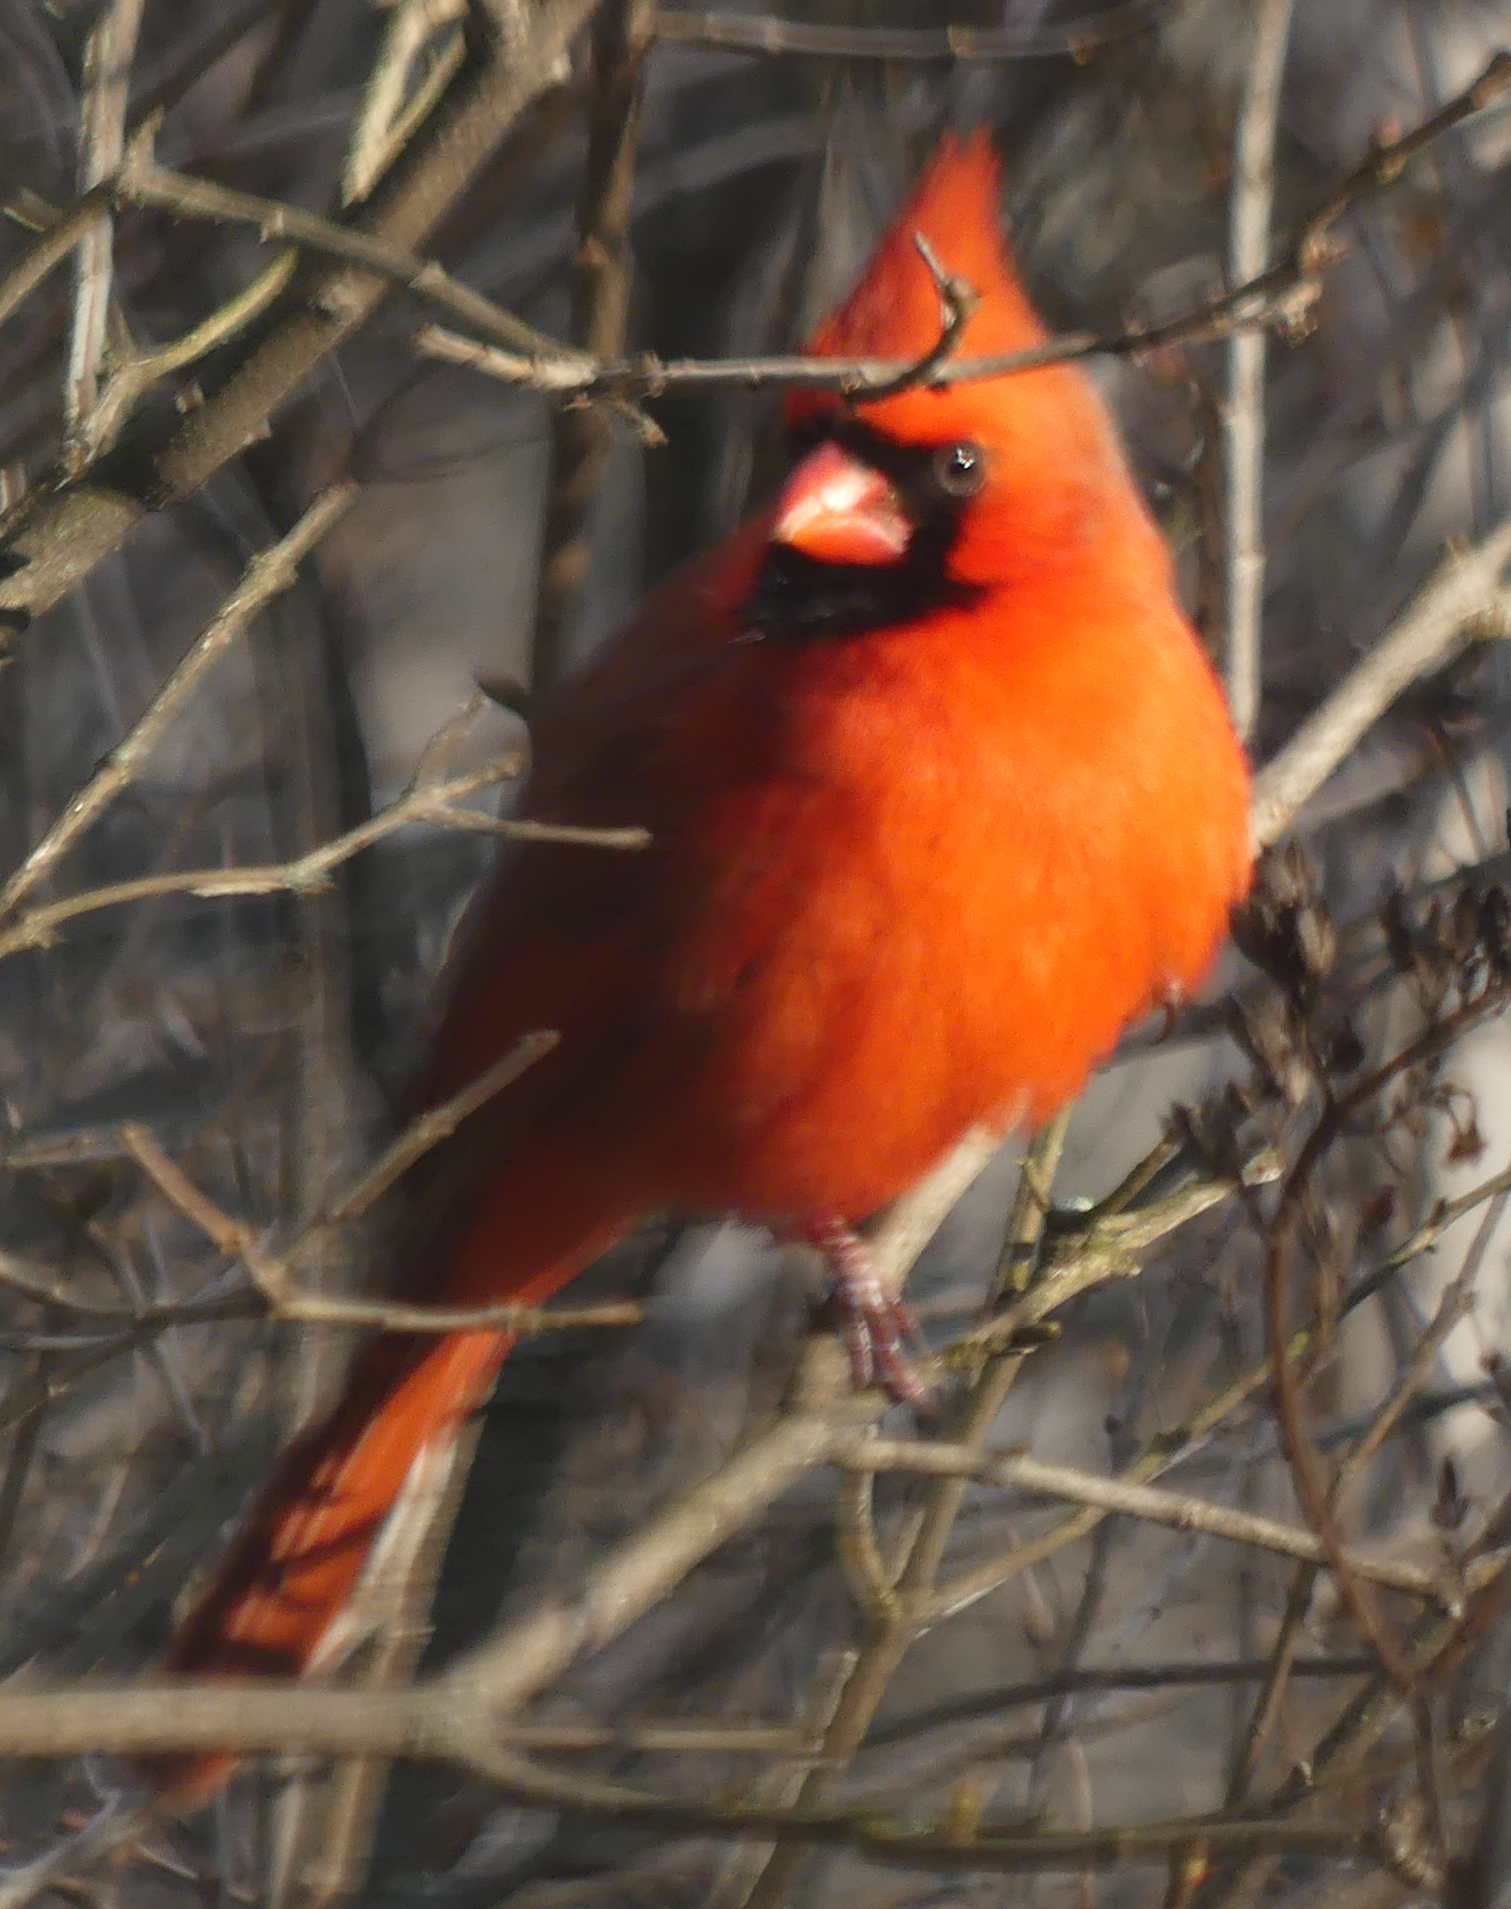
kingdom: Animalia
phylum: Chordata
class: Aves
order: Passeriformes
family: Cardinalidae
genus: Cardinalis
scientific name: Cardinalis cardinalis
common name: Northern cardinal
